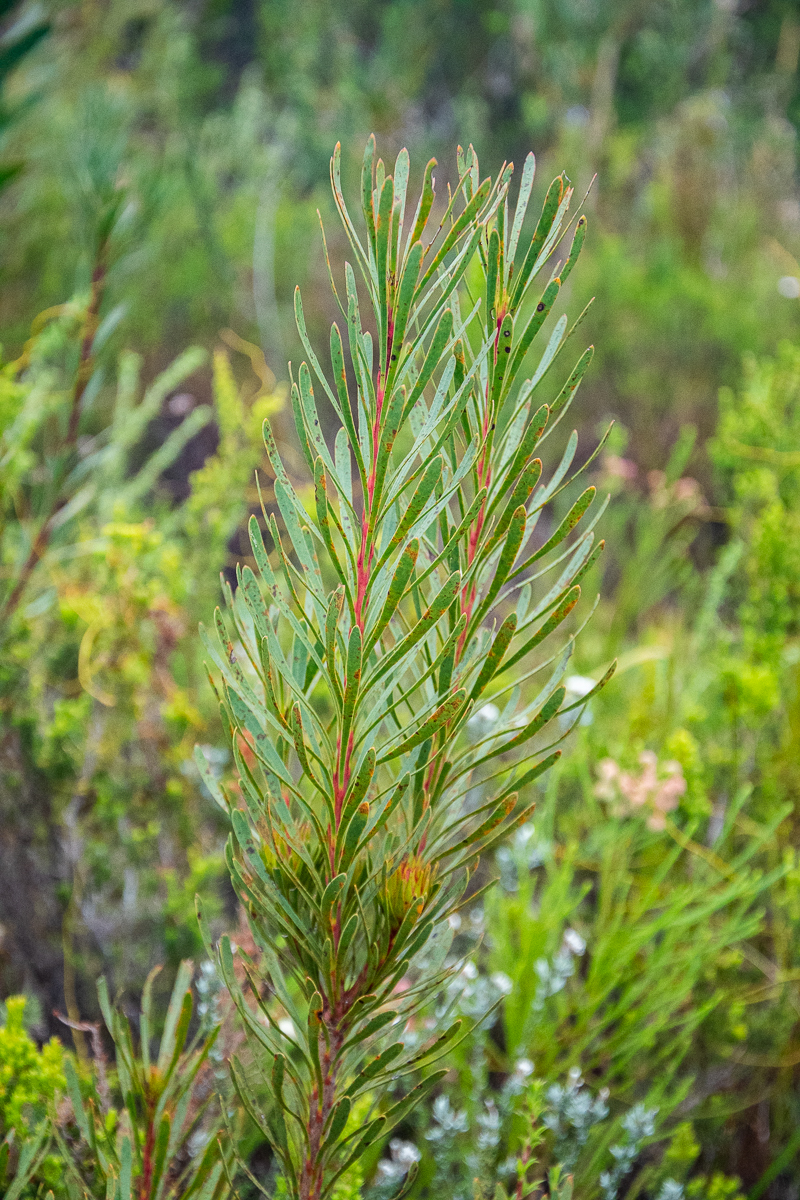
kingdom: Plantae
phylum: Tracheophyta
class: Magnoliopsida
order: Proteales
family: Proteaceae
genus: Aulax
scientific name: Aulax
